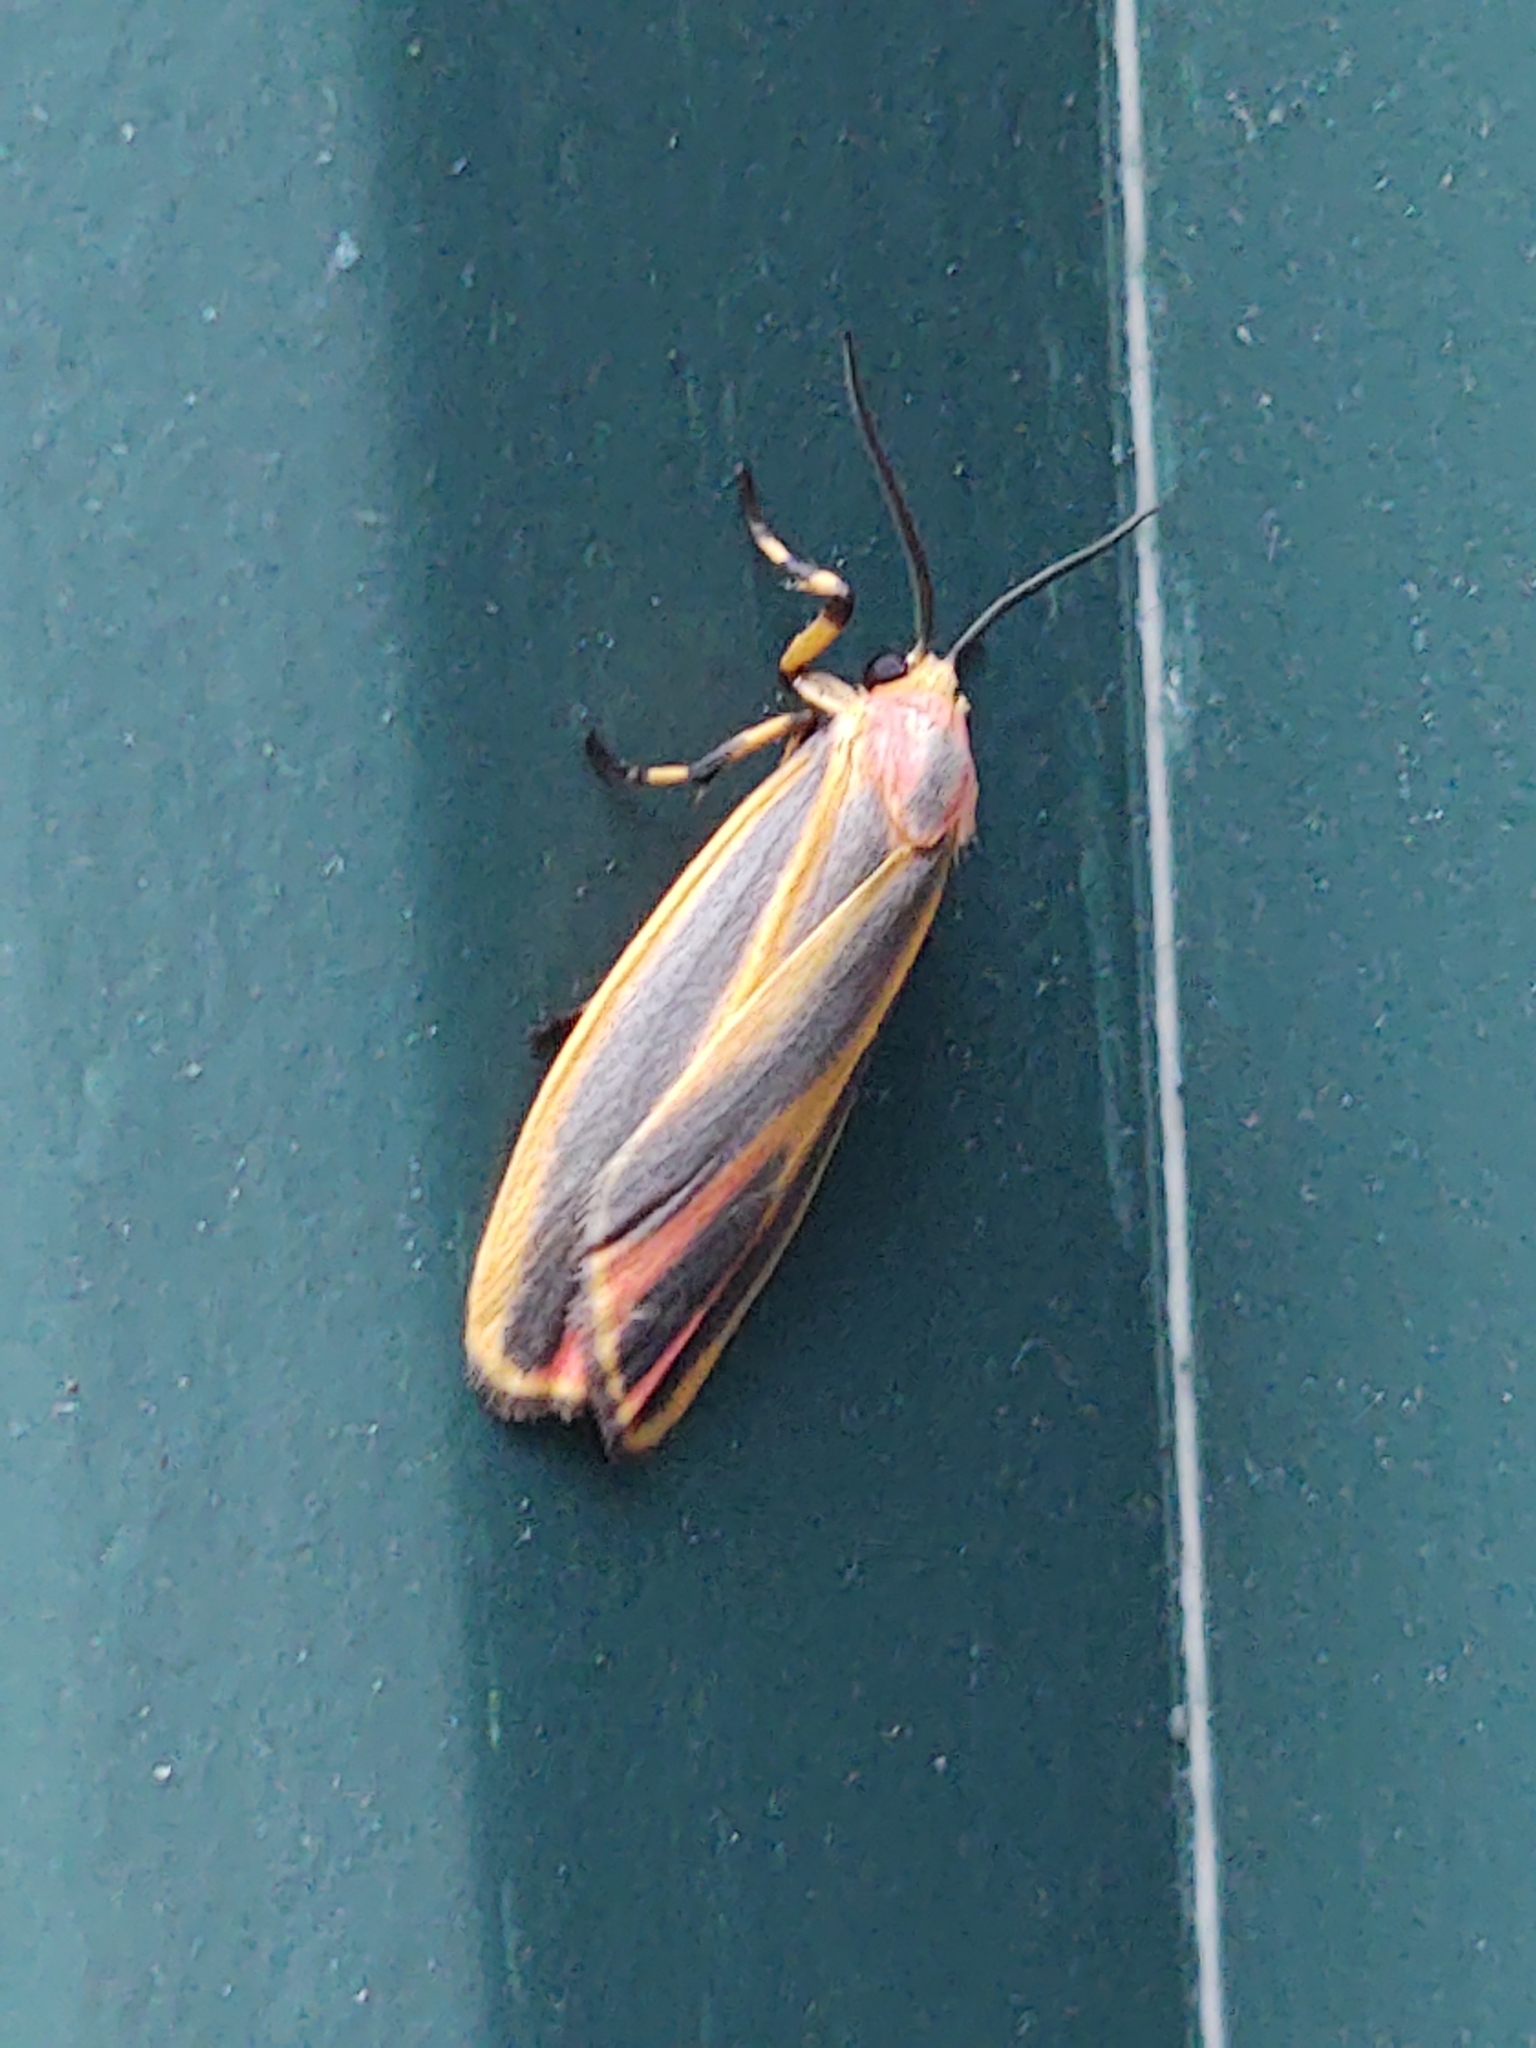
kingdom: Animalia
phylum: Arthropoda
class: Insecta
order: Lepidoptera
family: Erebidae
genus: Hypoprepia
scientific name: Hypoprepia fucosa
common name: Painted lichen moth
